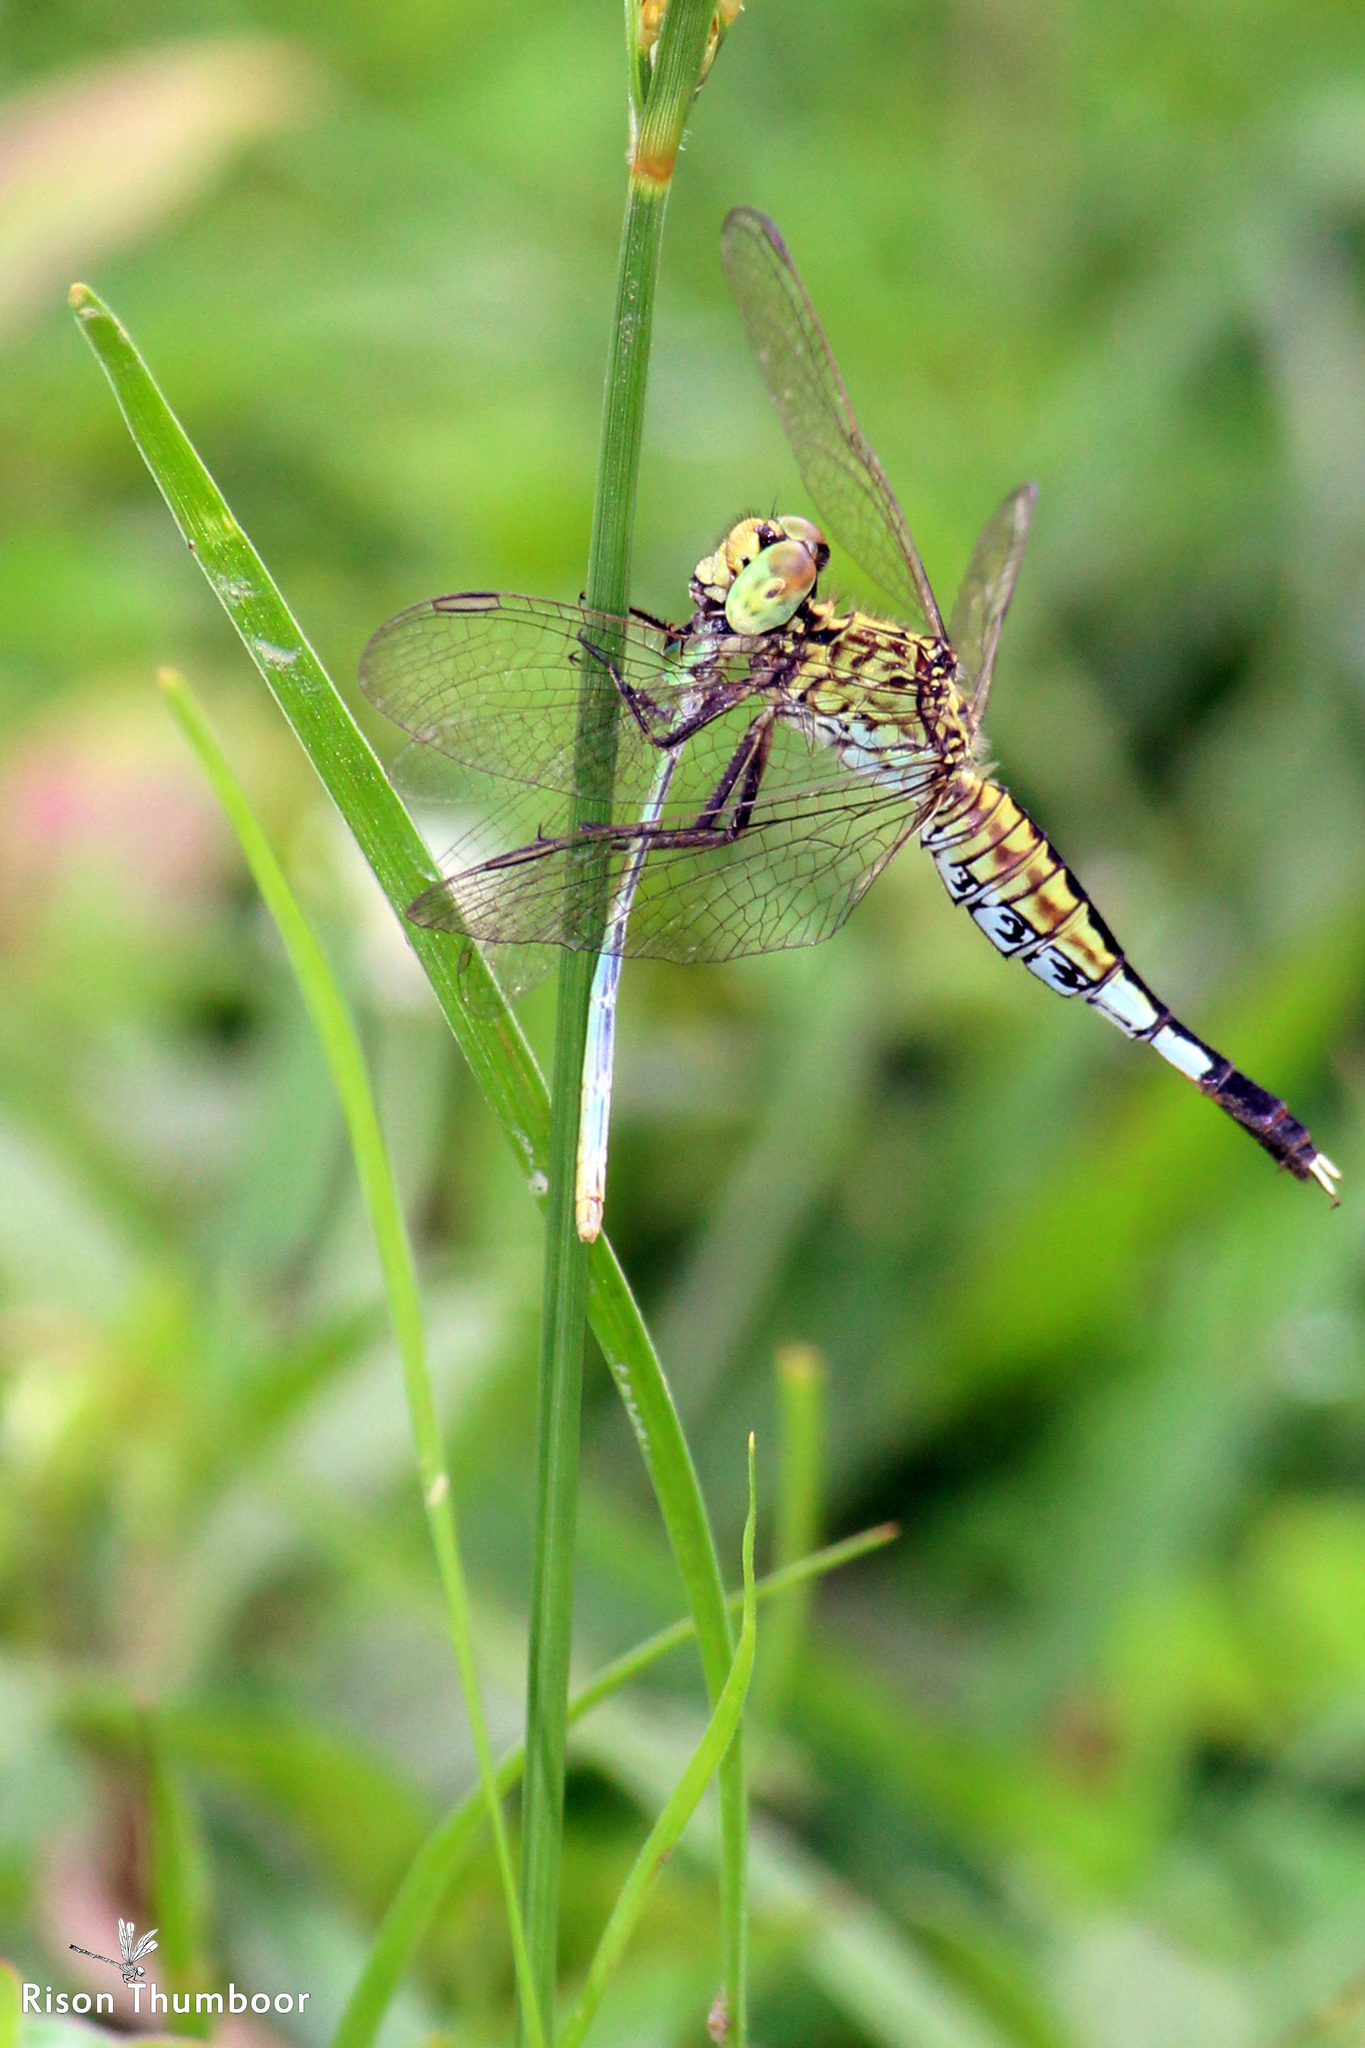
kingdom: Animalia
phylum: Arthropoda
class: Insecta
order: Odonata
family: Libellulidae
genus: Acisoma
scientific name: Acisoma panorpoides
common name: Asian pintail
